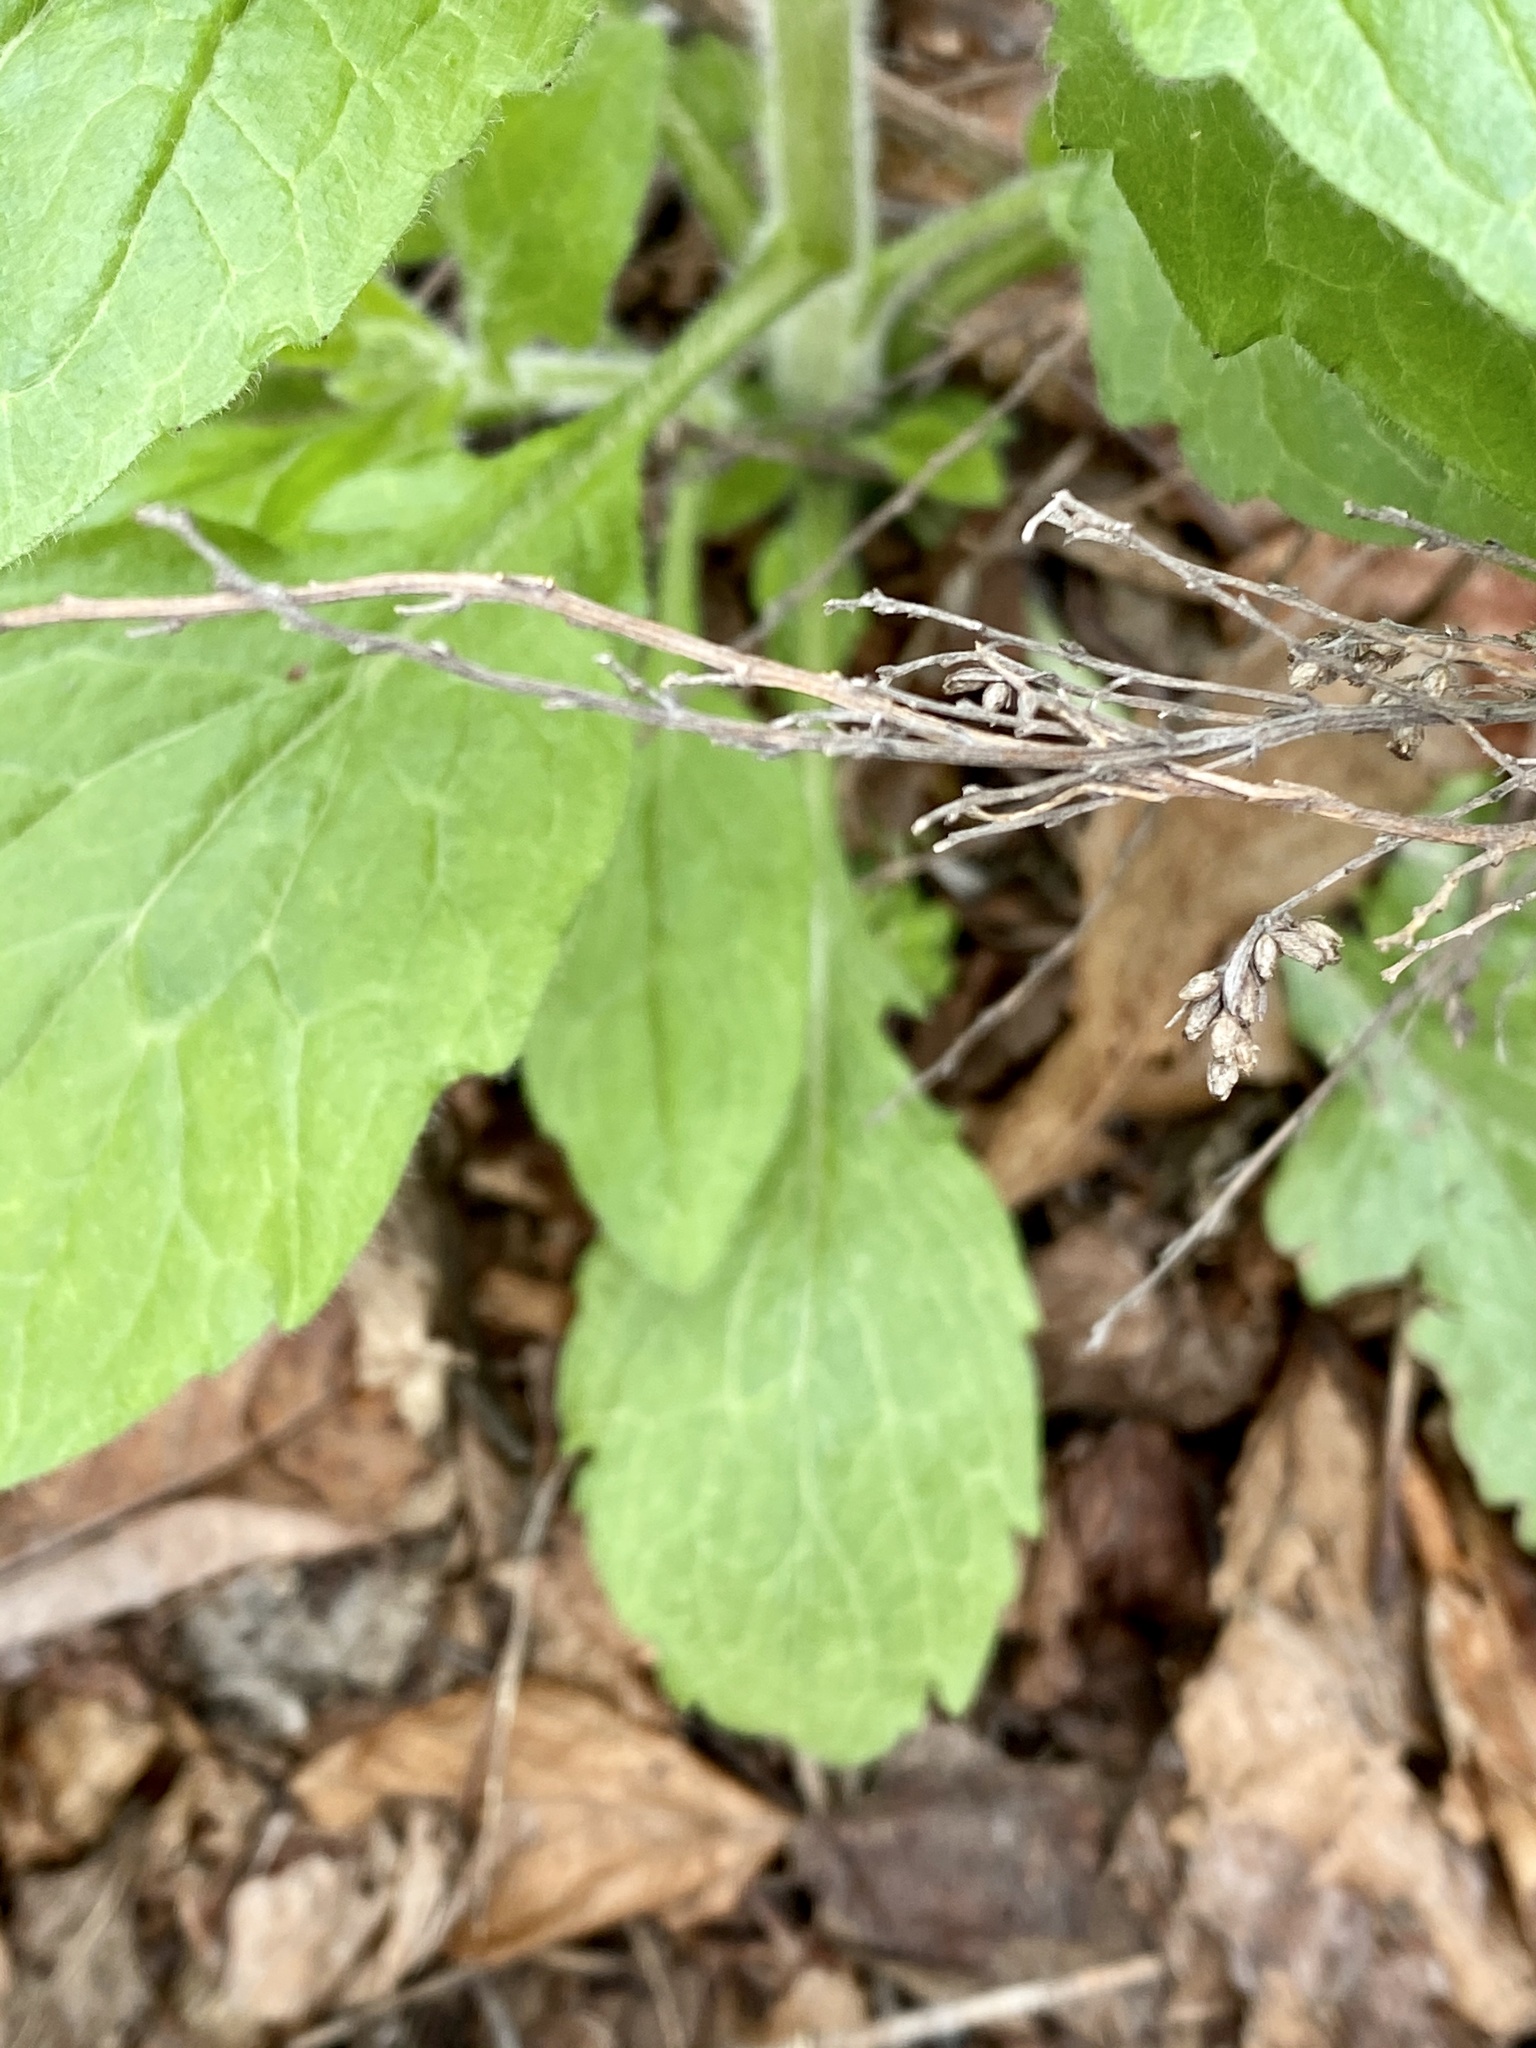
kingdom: Plantae
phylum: Tracheophyta
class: Magnoliopsida
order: Asterales
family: Asteraceae
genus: Erigeron
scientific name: Erigeron annuus
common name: Tall fleabane
